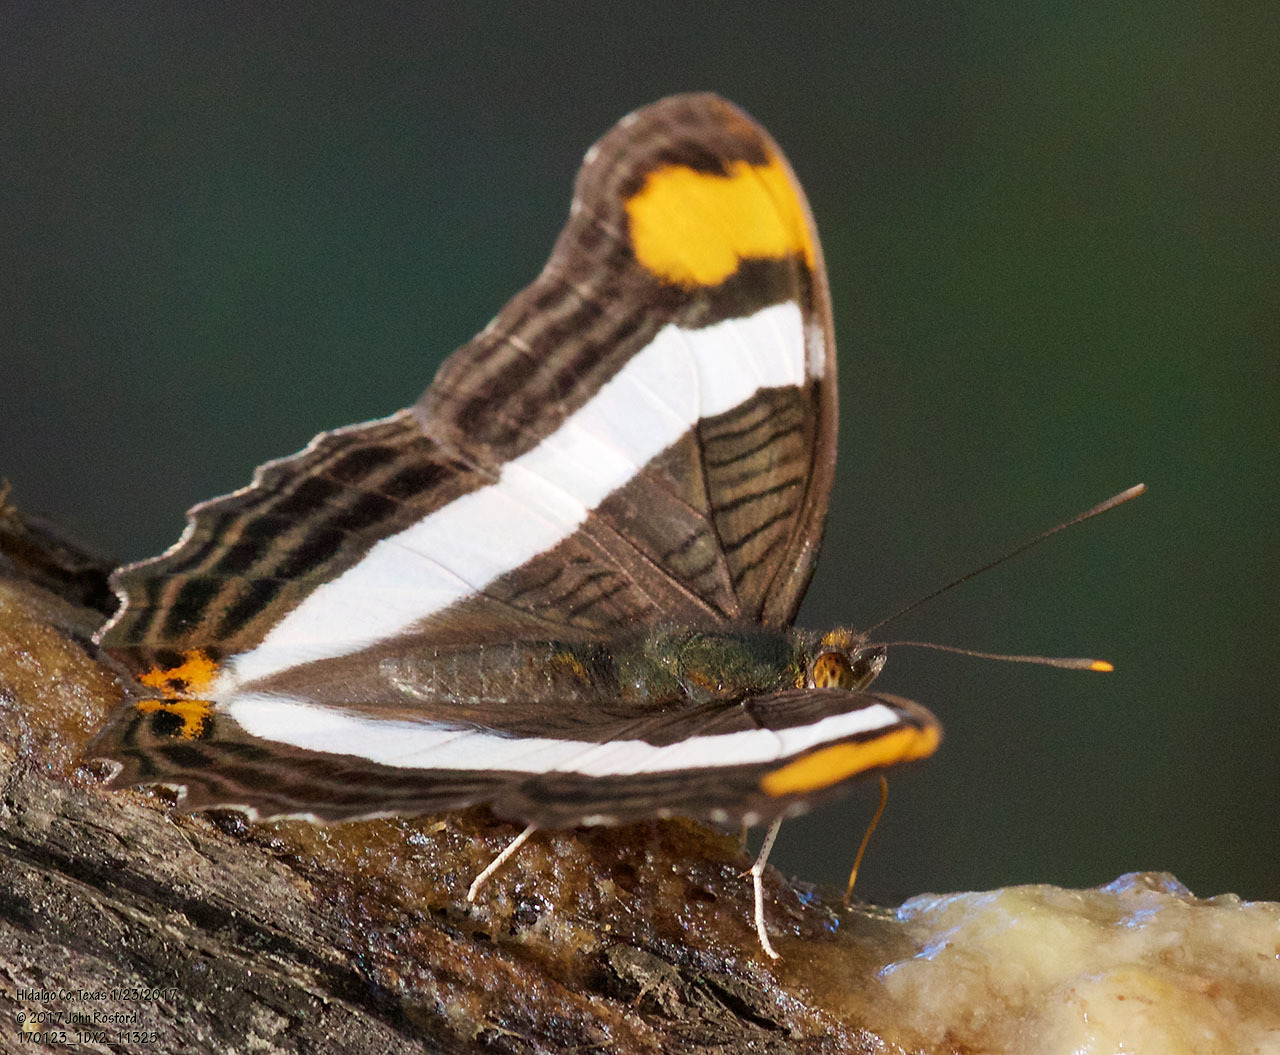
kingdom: Animalia
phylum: Arthropoda
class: Insecta
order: Lepidoptera
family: Nymphalidae
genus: Limenitis
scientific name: Limenitis fessonia
